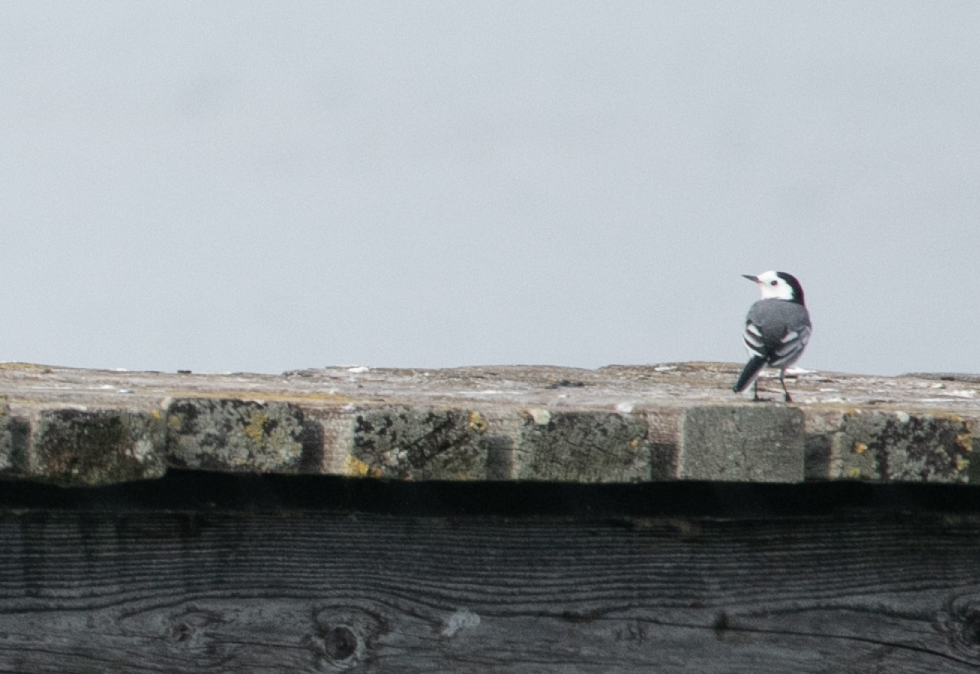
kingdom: Animalia
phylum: Chordata
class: Aves
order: Passeriformes
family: Motacillidae
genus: Motacilla
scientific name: Motacilla alba
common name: White wagtail
